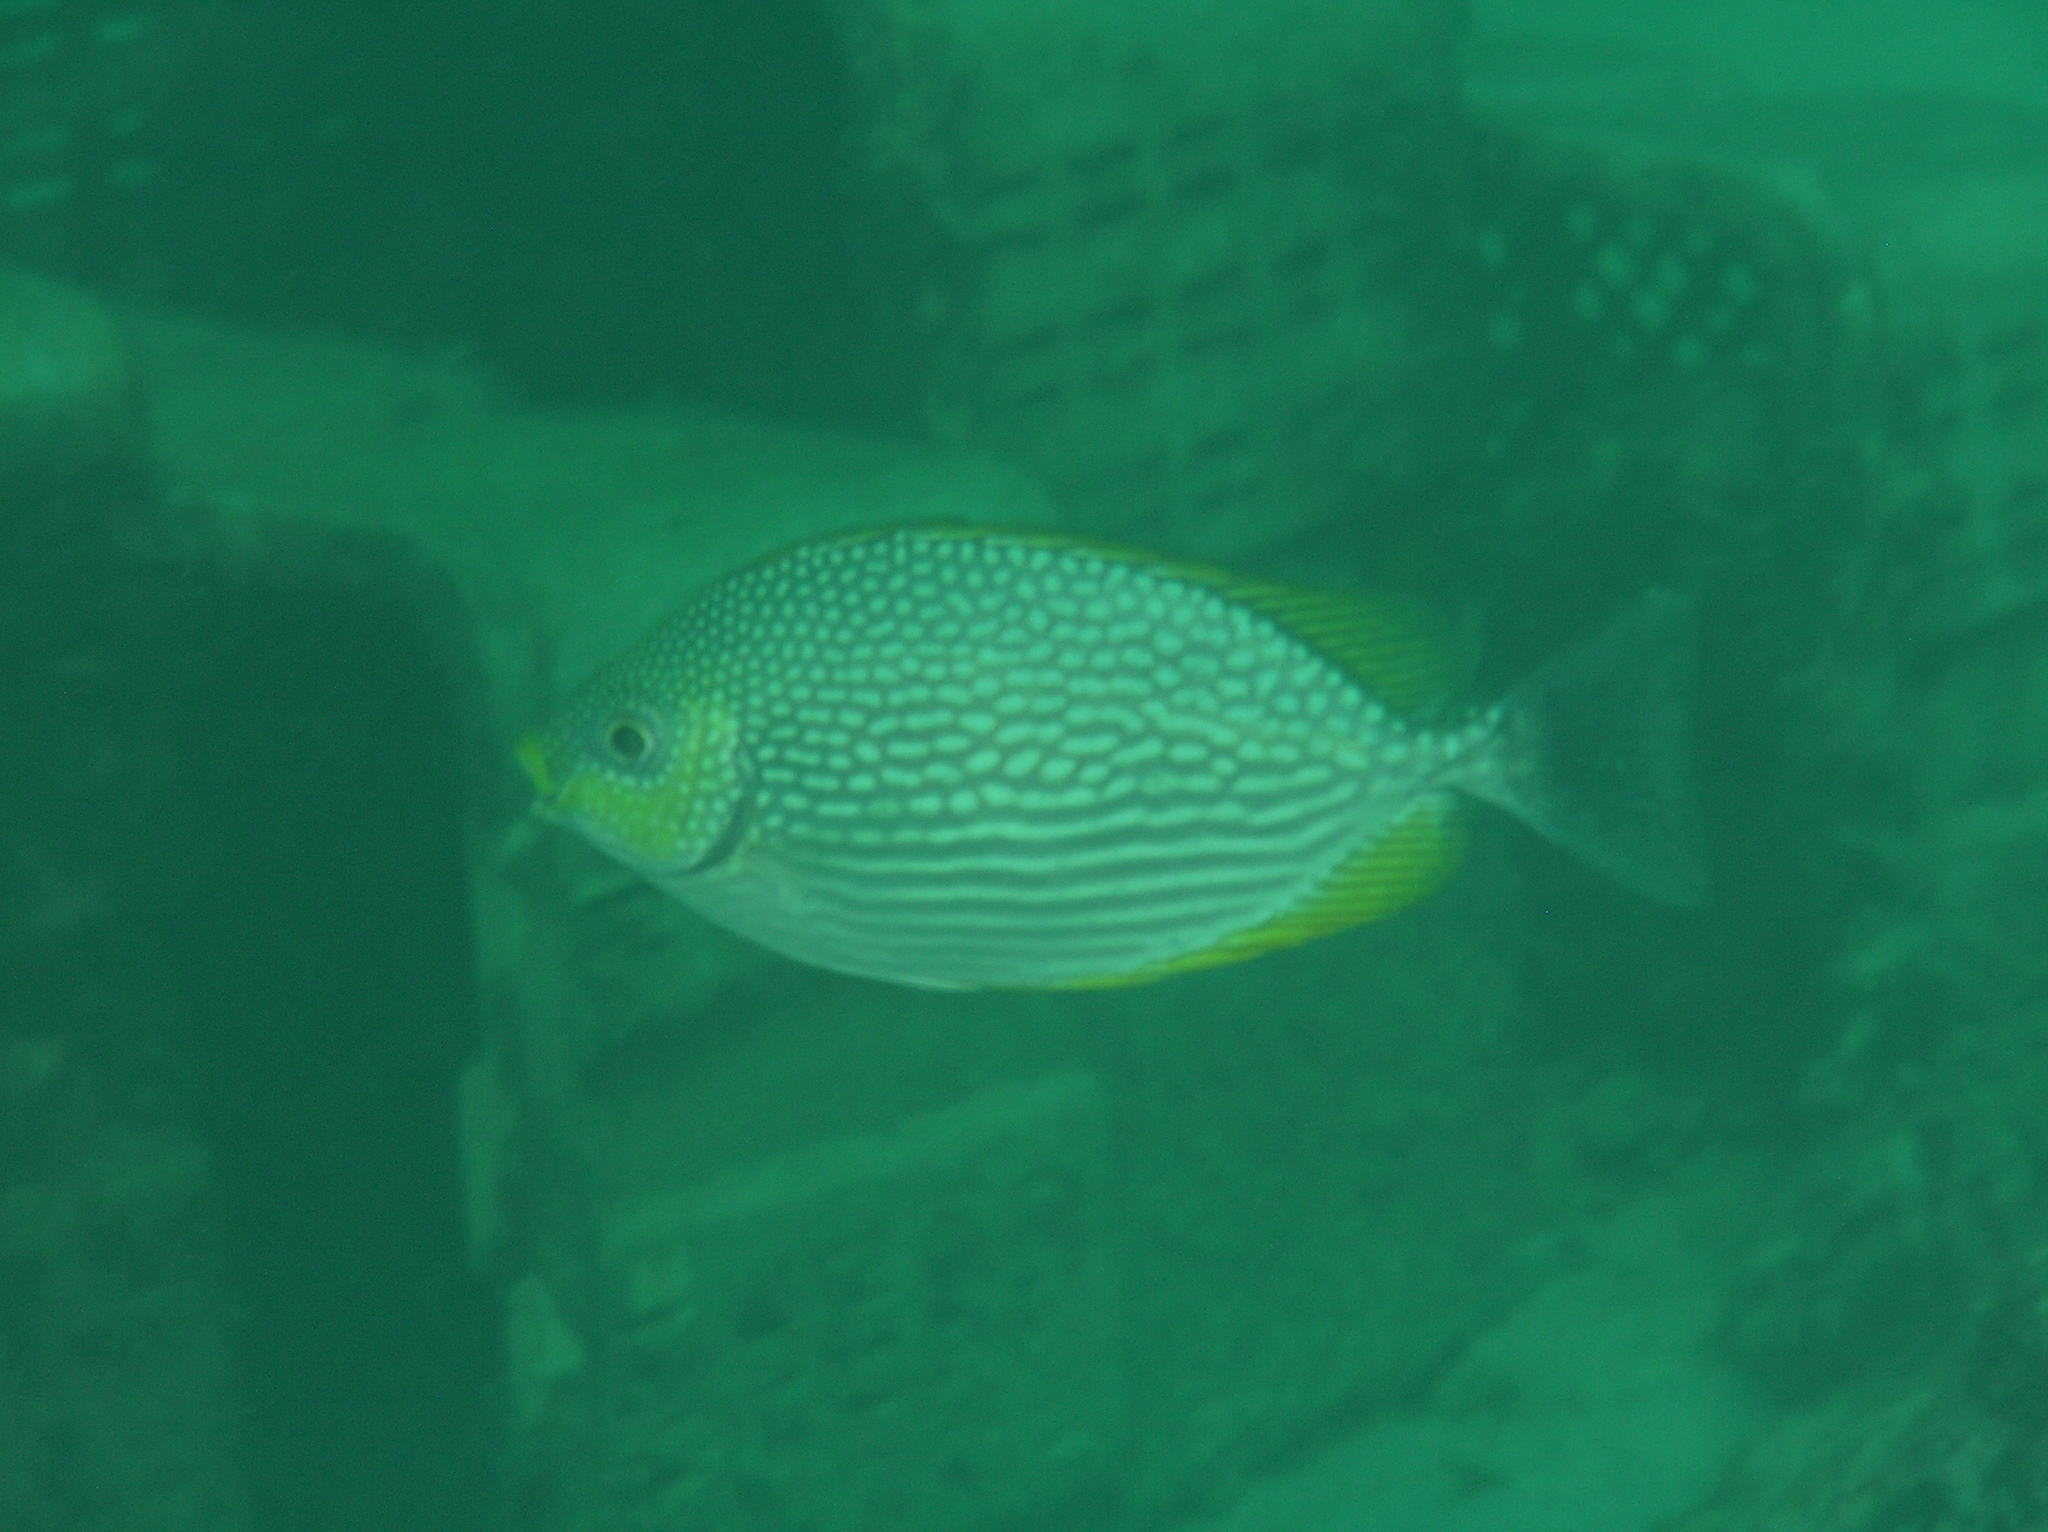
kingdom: Animalia
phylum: Chordata
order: Perciformes
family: Siganidae
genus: Siganus
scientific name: Siganus javus
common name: Java rabbitfish
